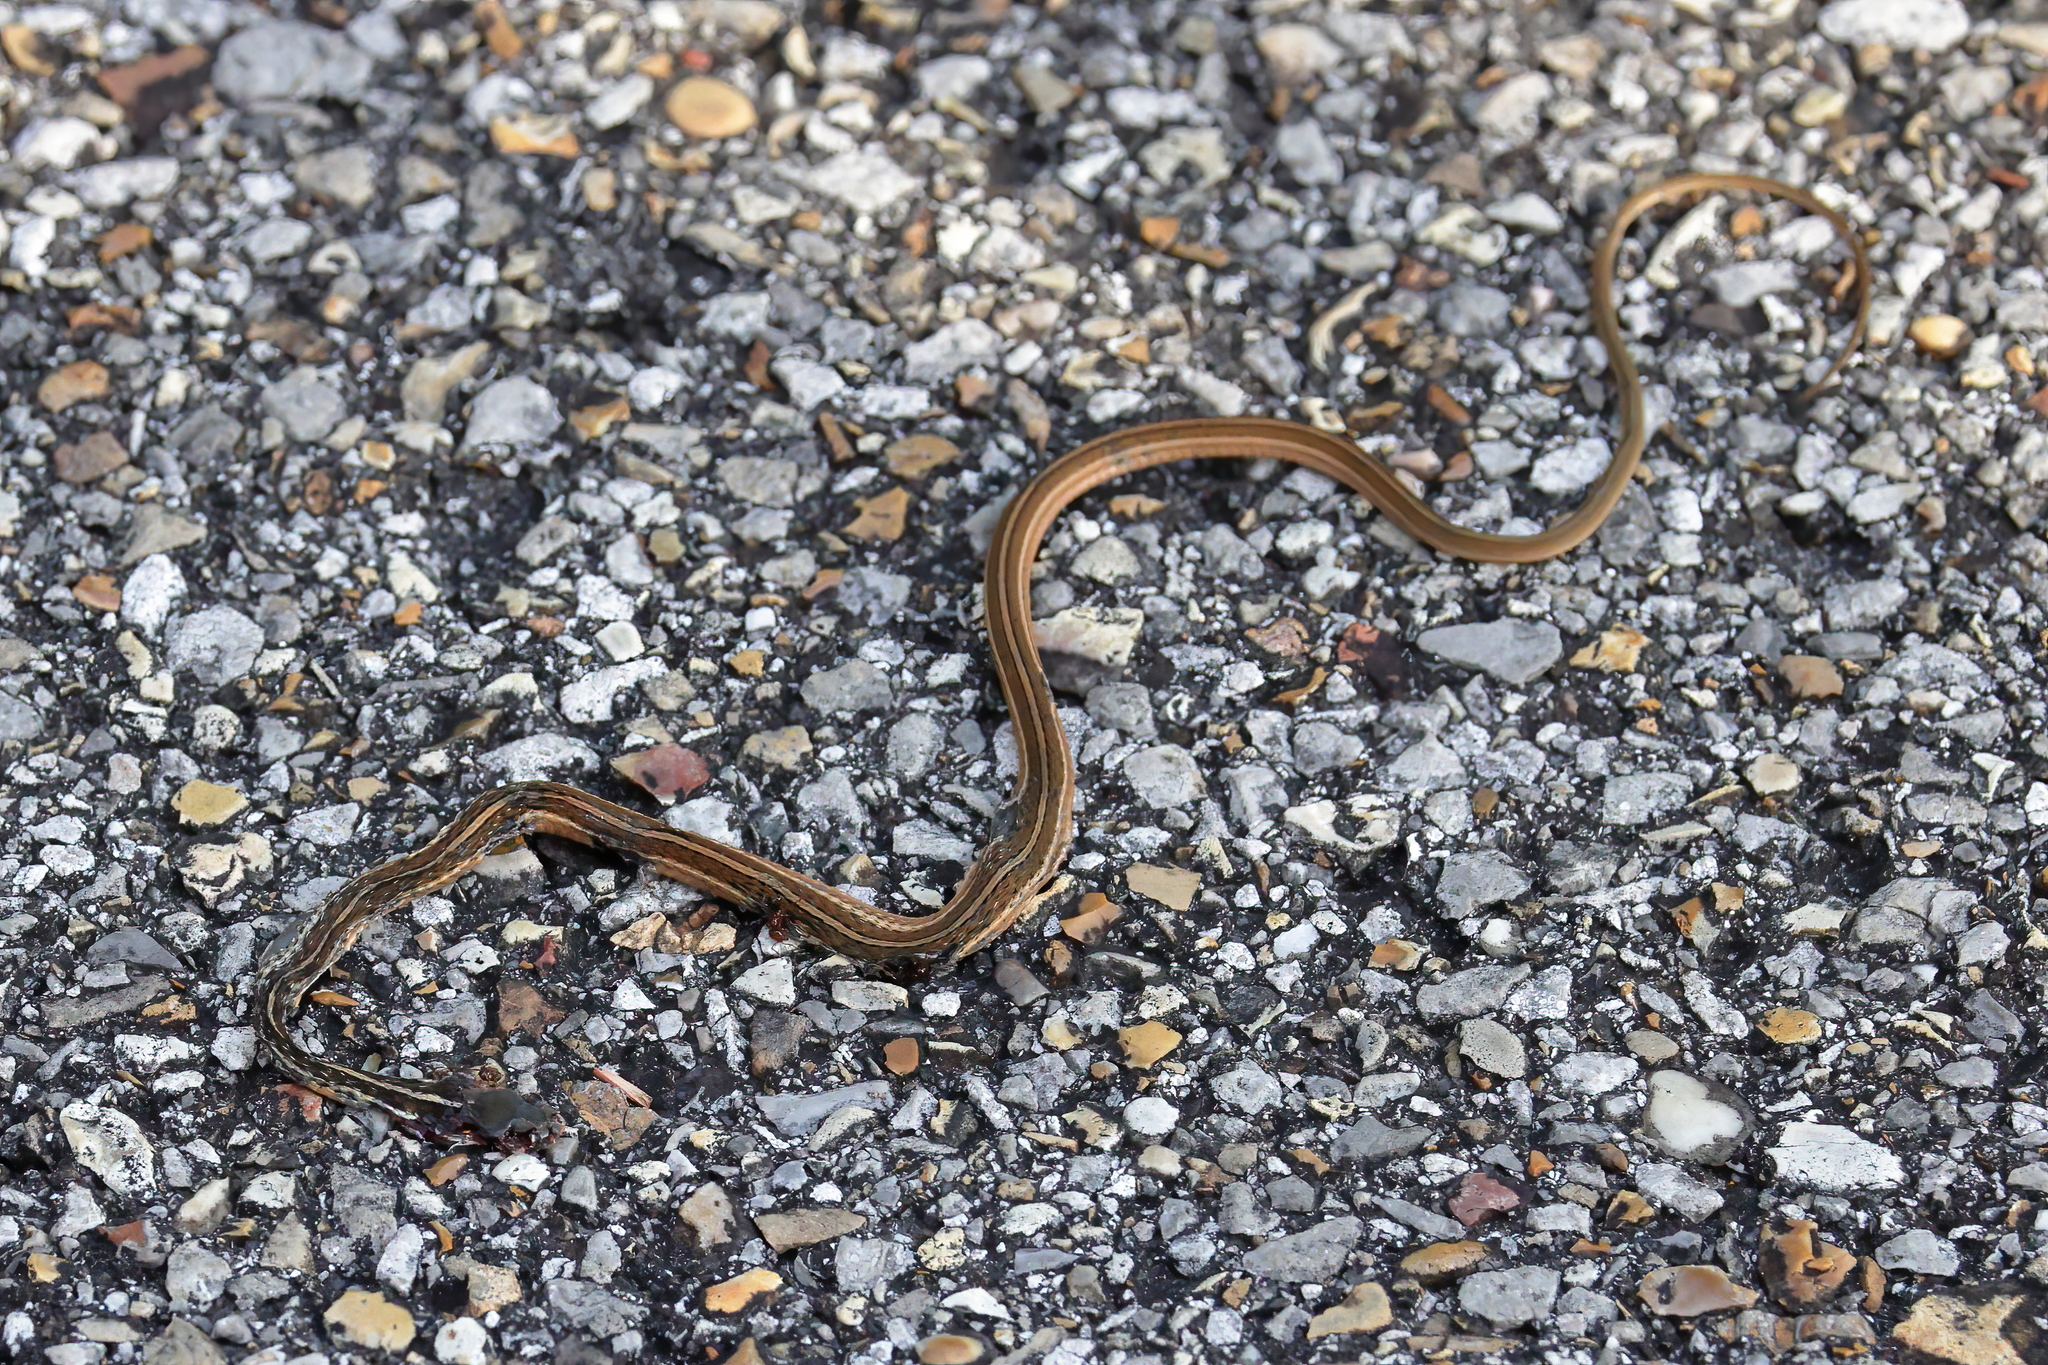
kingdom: Animalia
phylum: Chordata
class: Squamata
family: Colubridae
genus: Thamnophis
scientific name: Thamnophis saurita
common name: Eastern ribbonsnake
